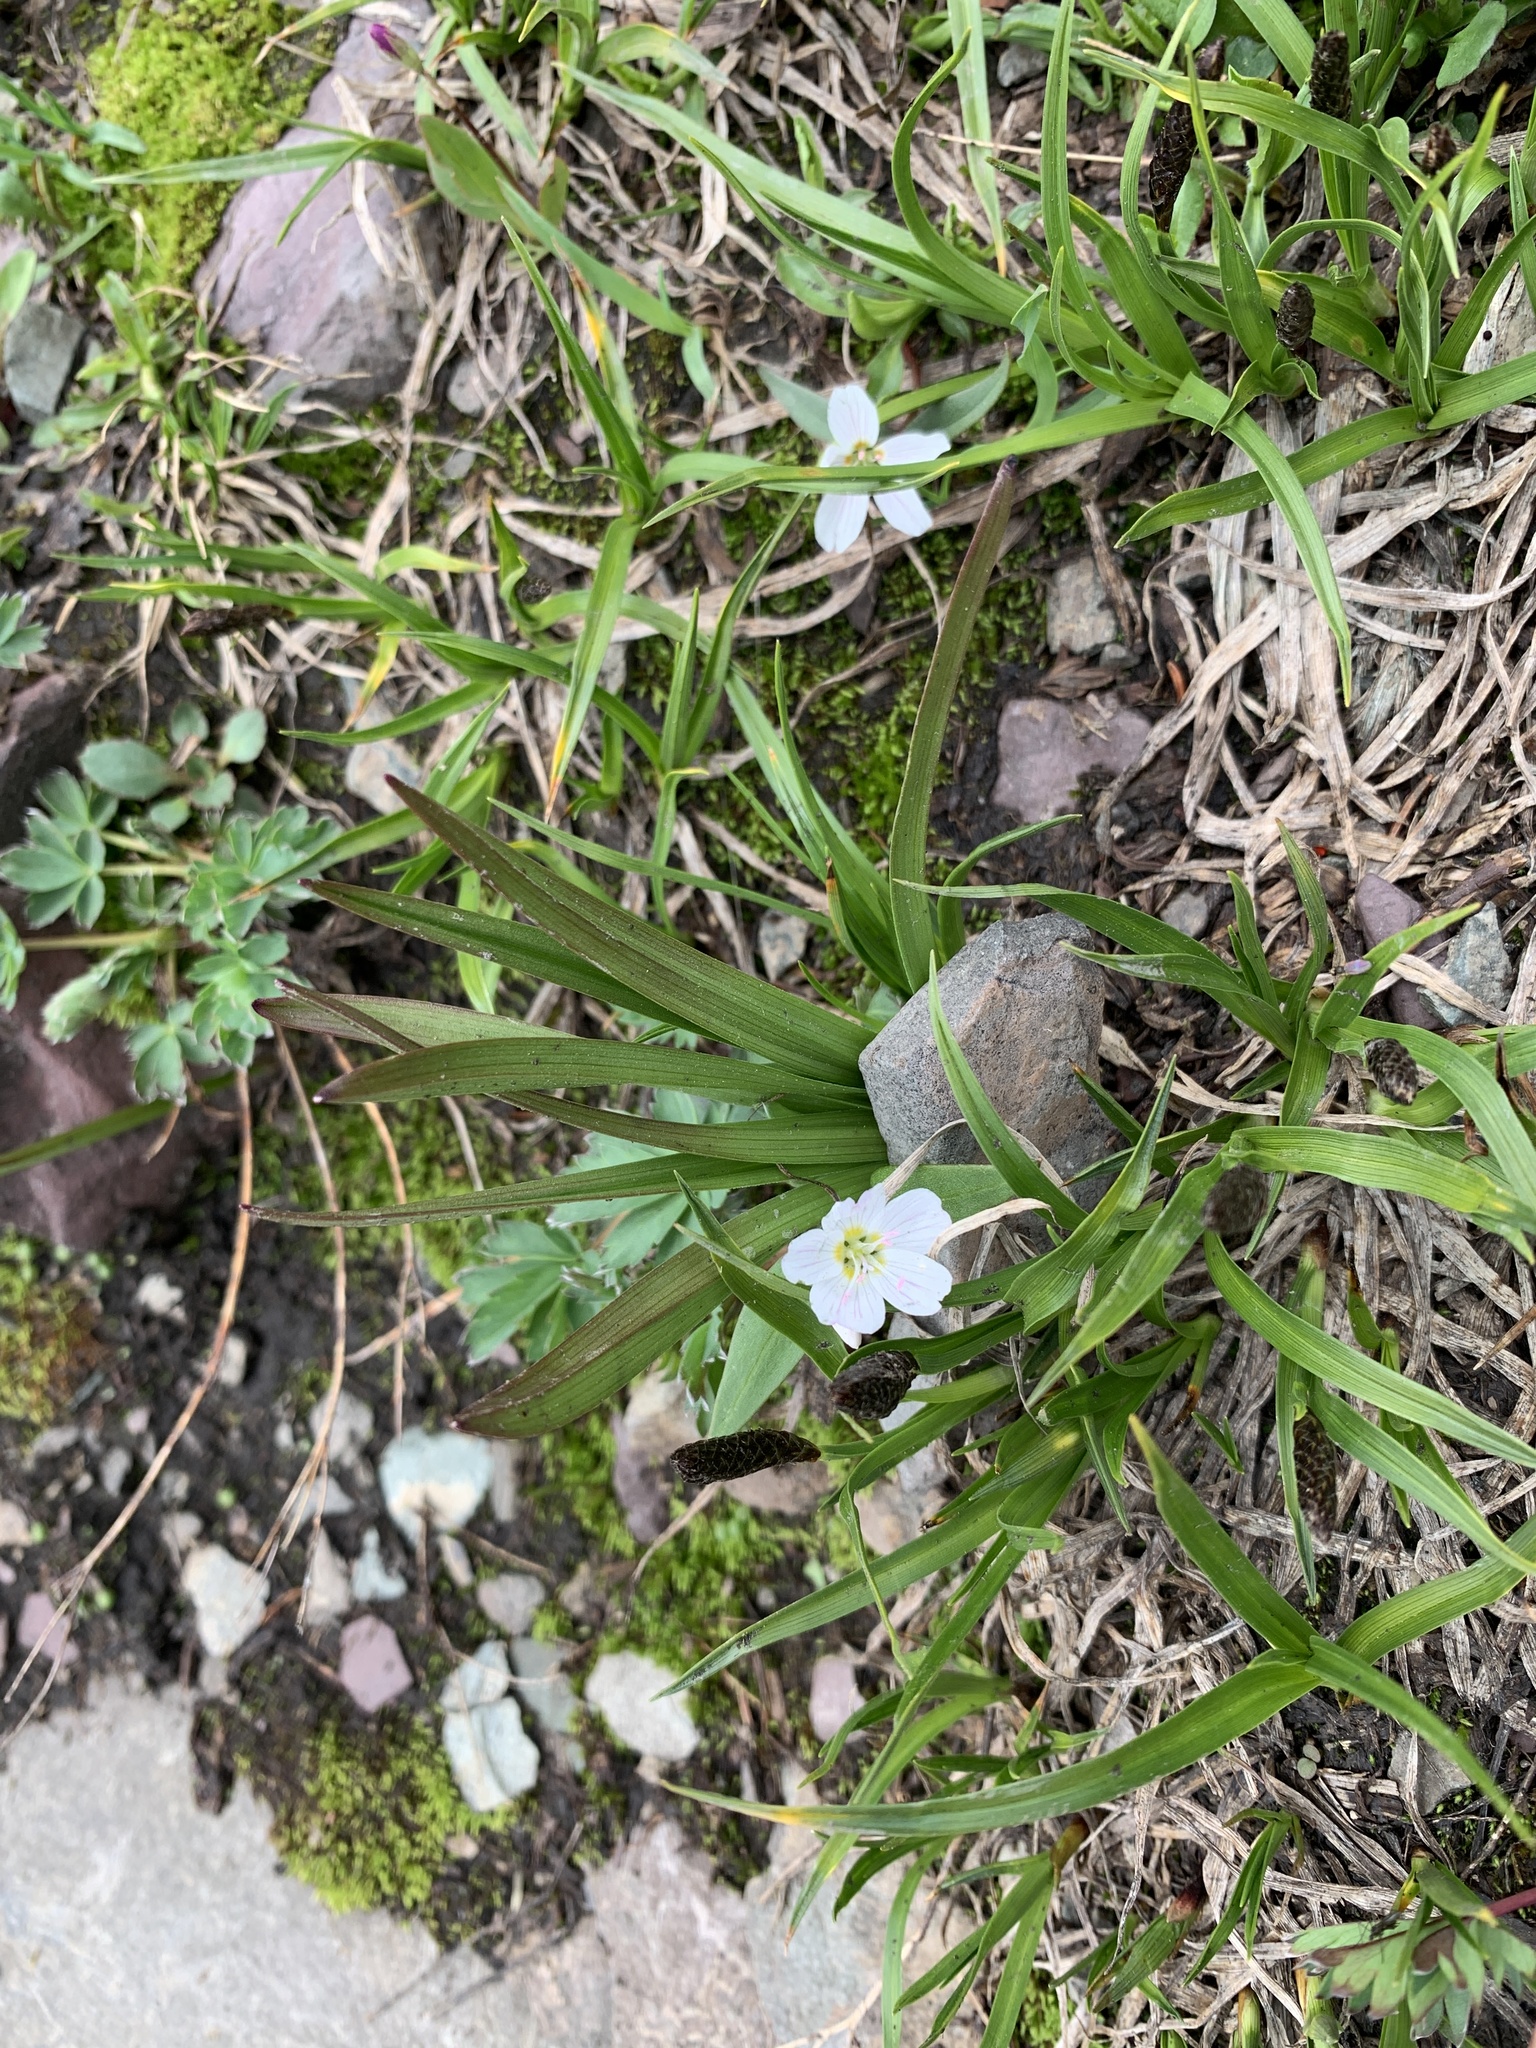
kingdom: Plantae
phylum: Tracheophyta
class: Magnoliopsida
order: Caryophyllales
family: Montiaceae
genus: Claytonia
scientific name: Claytonia lanceolata
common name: Western spring-beauty
